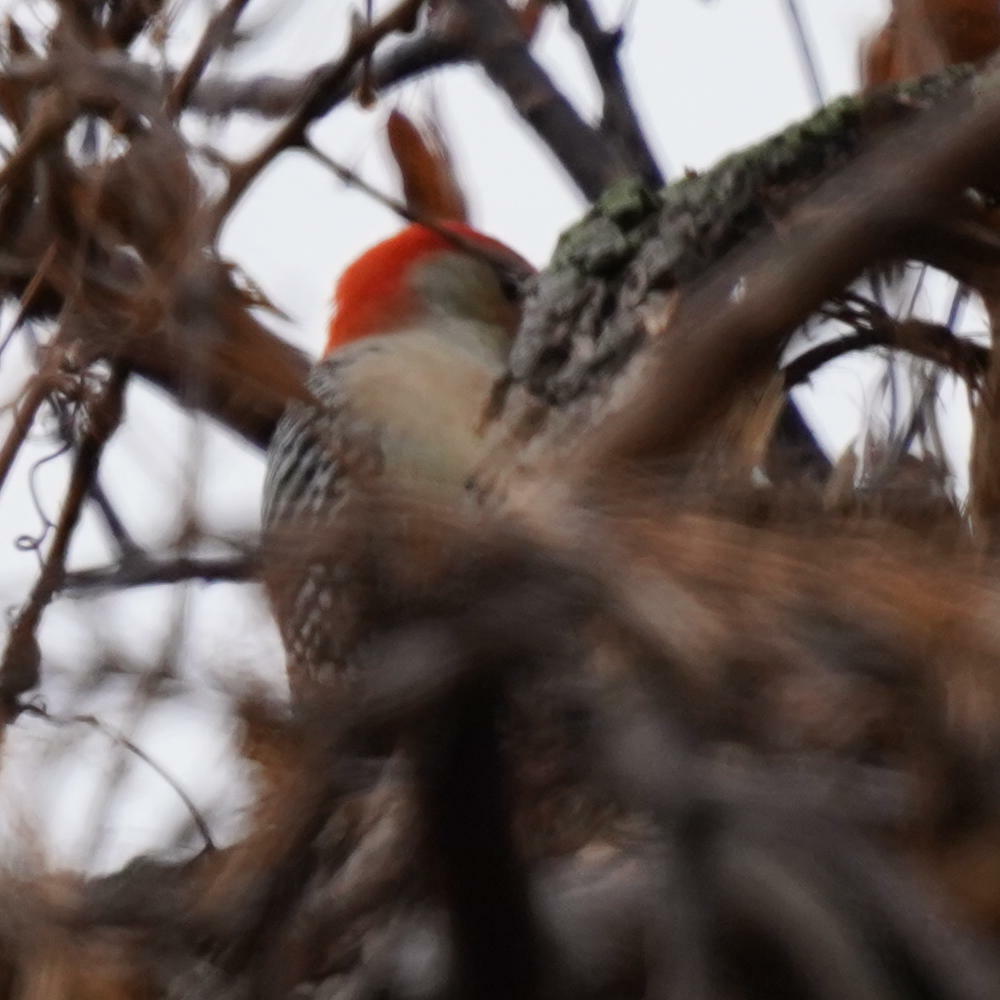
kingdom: Animalia
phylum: Chordata
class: Aves
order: Piciformes
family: Picidae
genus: Melanerpes
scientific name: Melanerpes carolinus
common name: Red-bellied woodpecker
